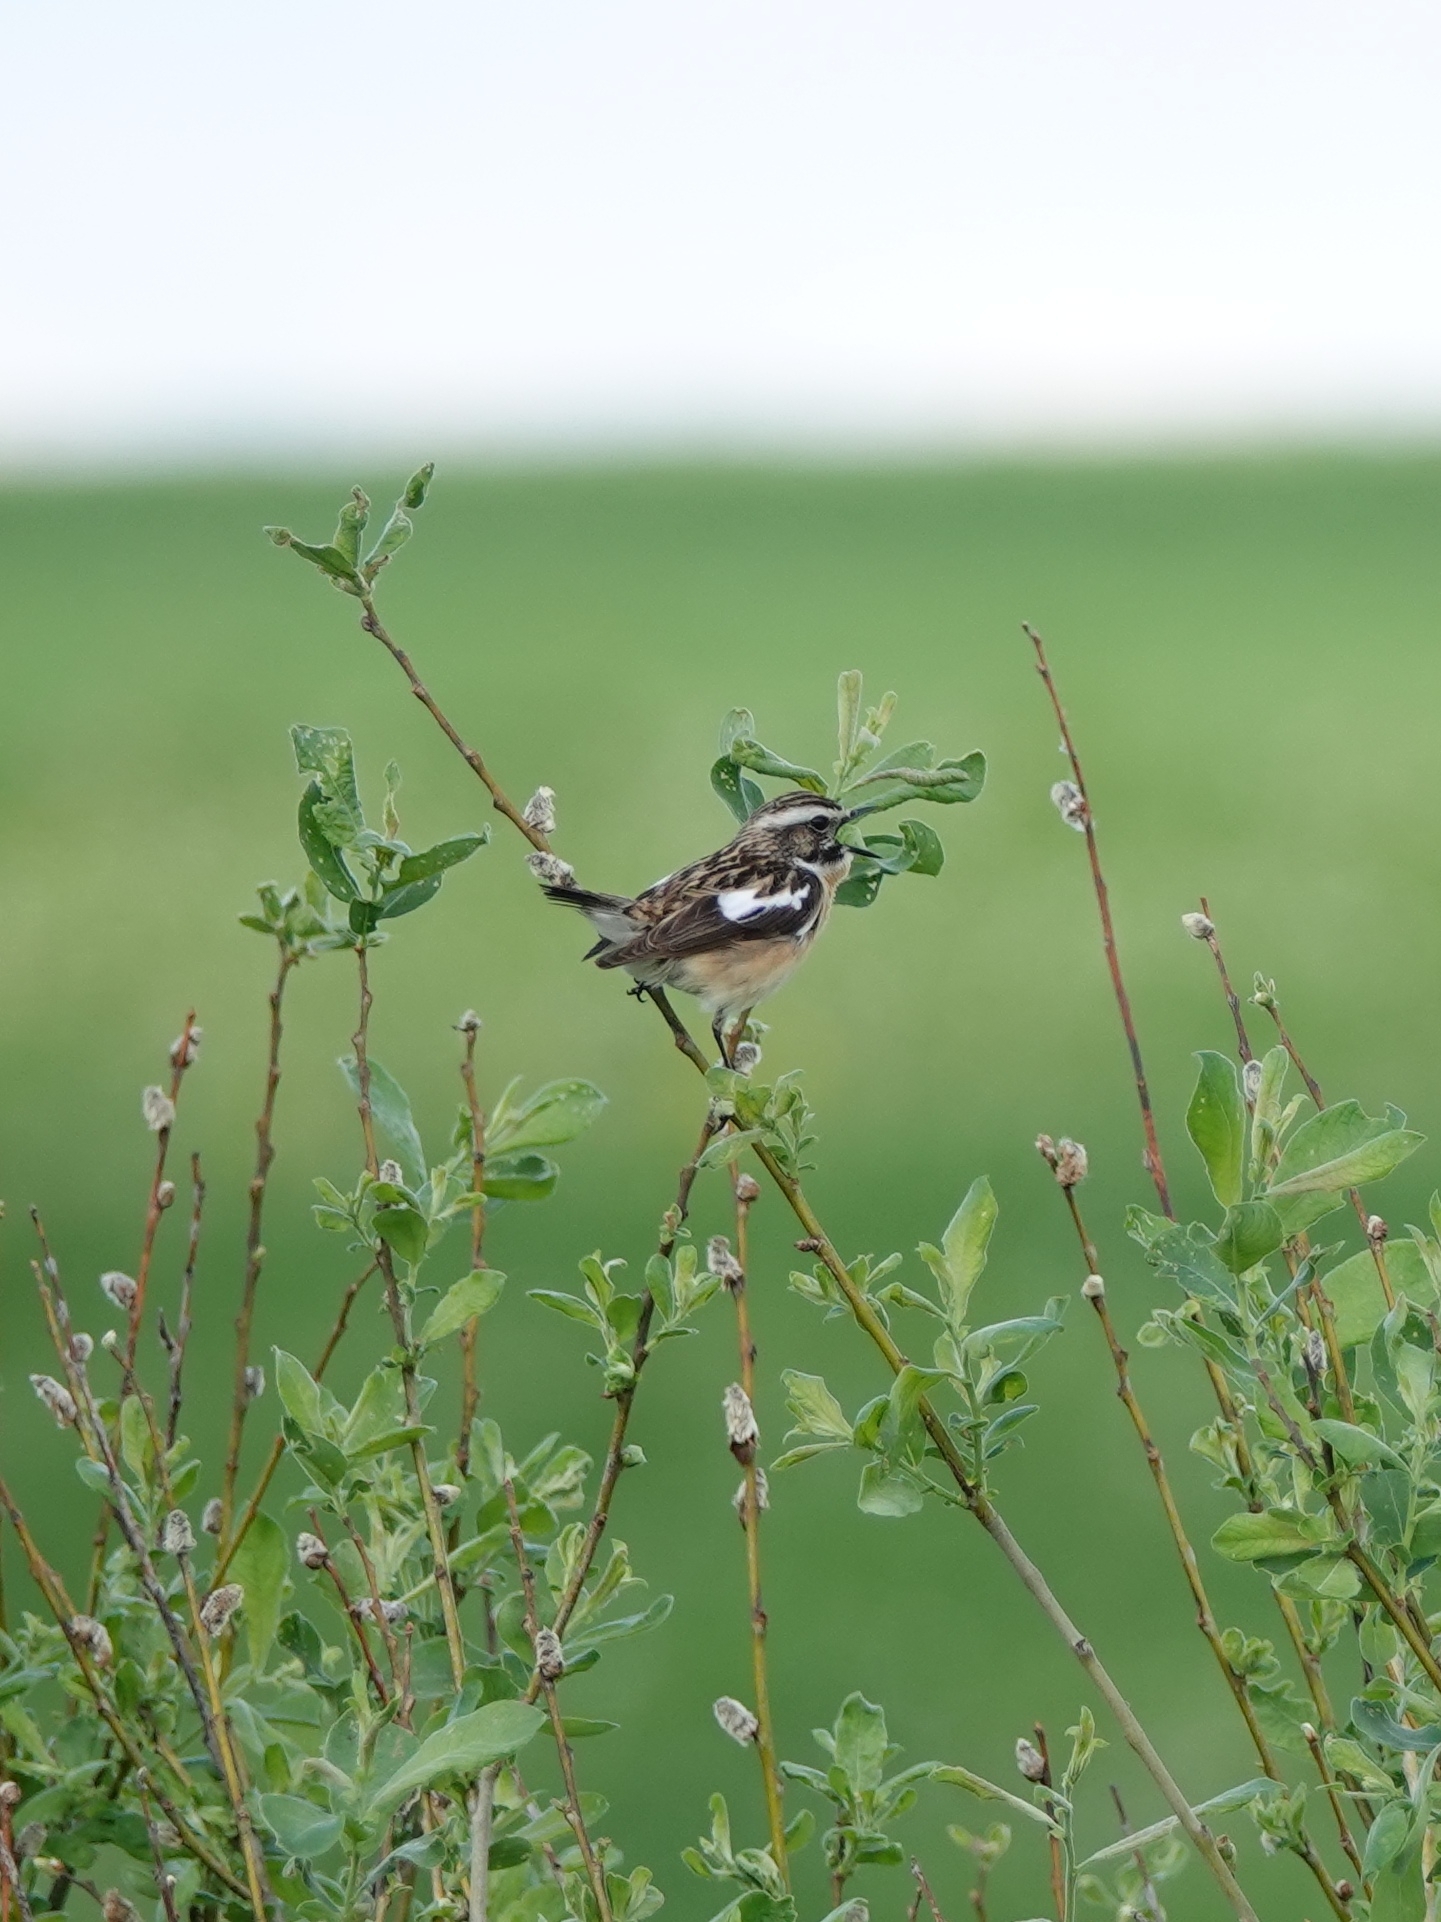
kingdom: Animalia
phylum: Chordata
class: Aves
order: Passeriformes
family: Muscicapidae
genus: Saxicola
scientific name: Saxicola rubetra
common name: Whinchat
